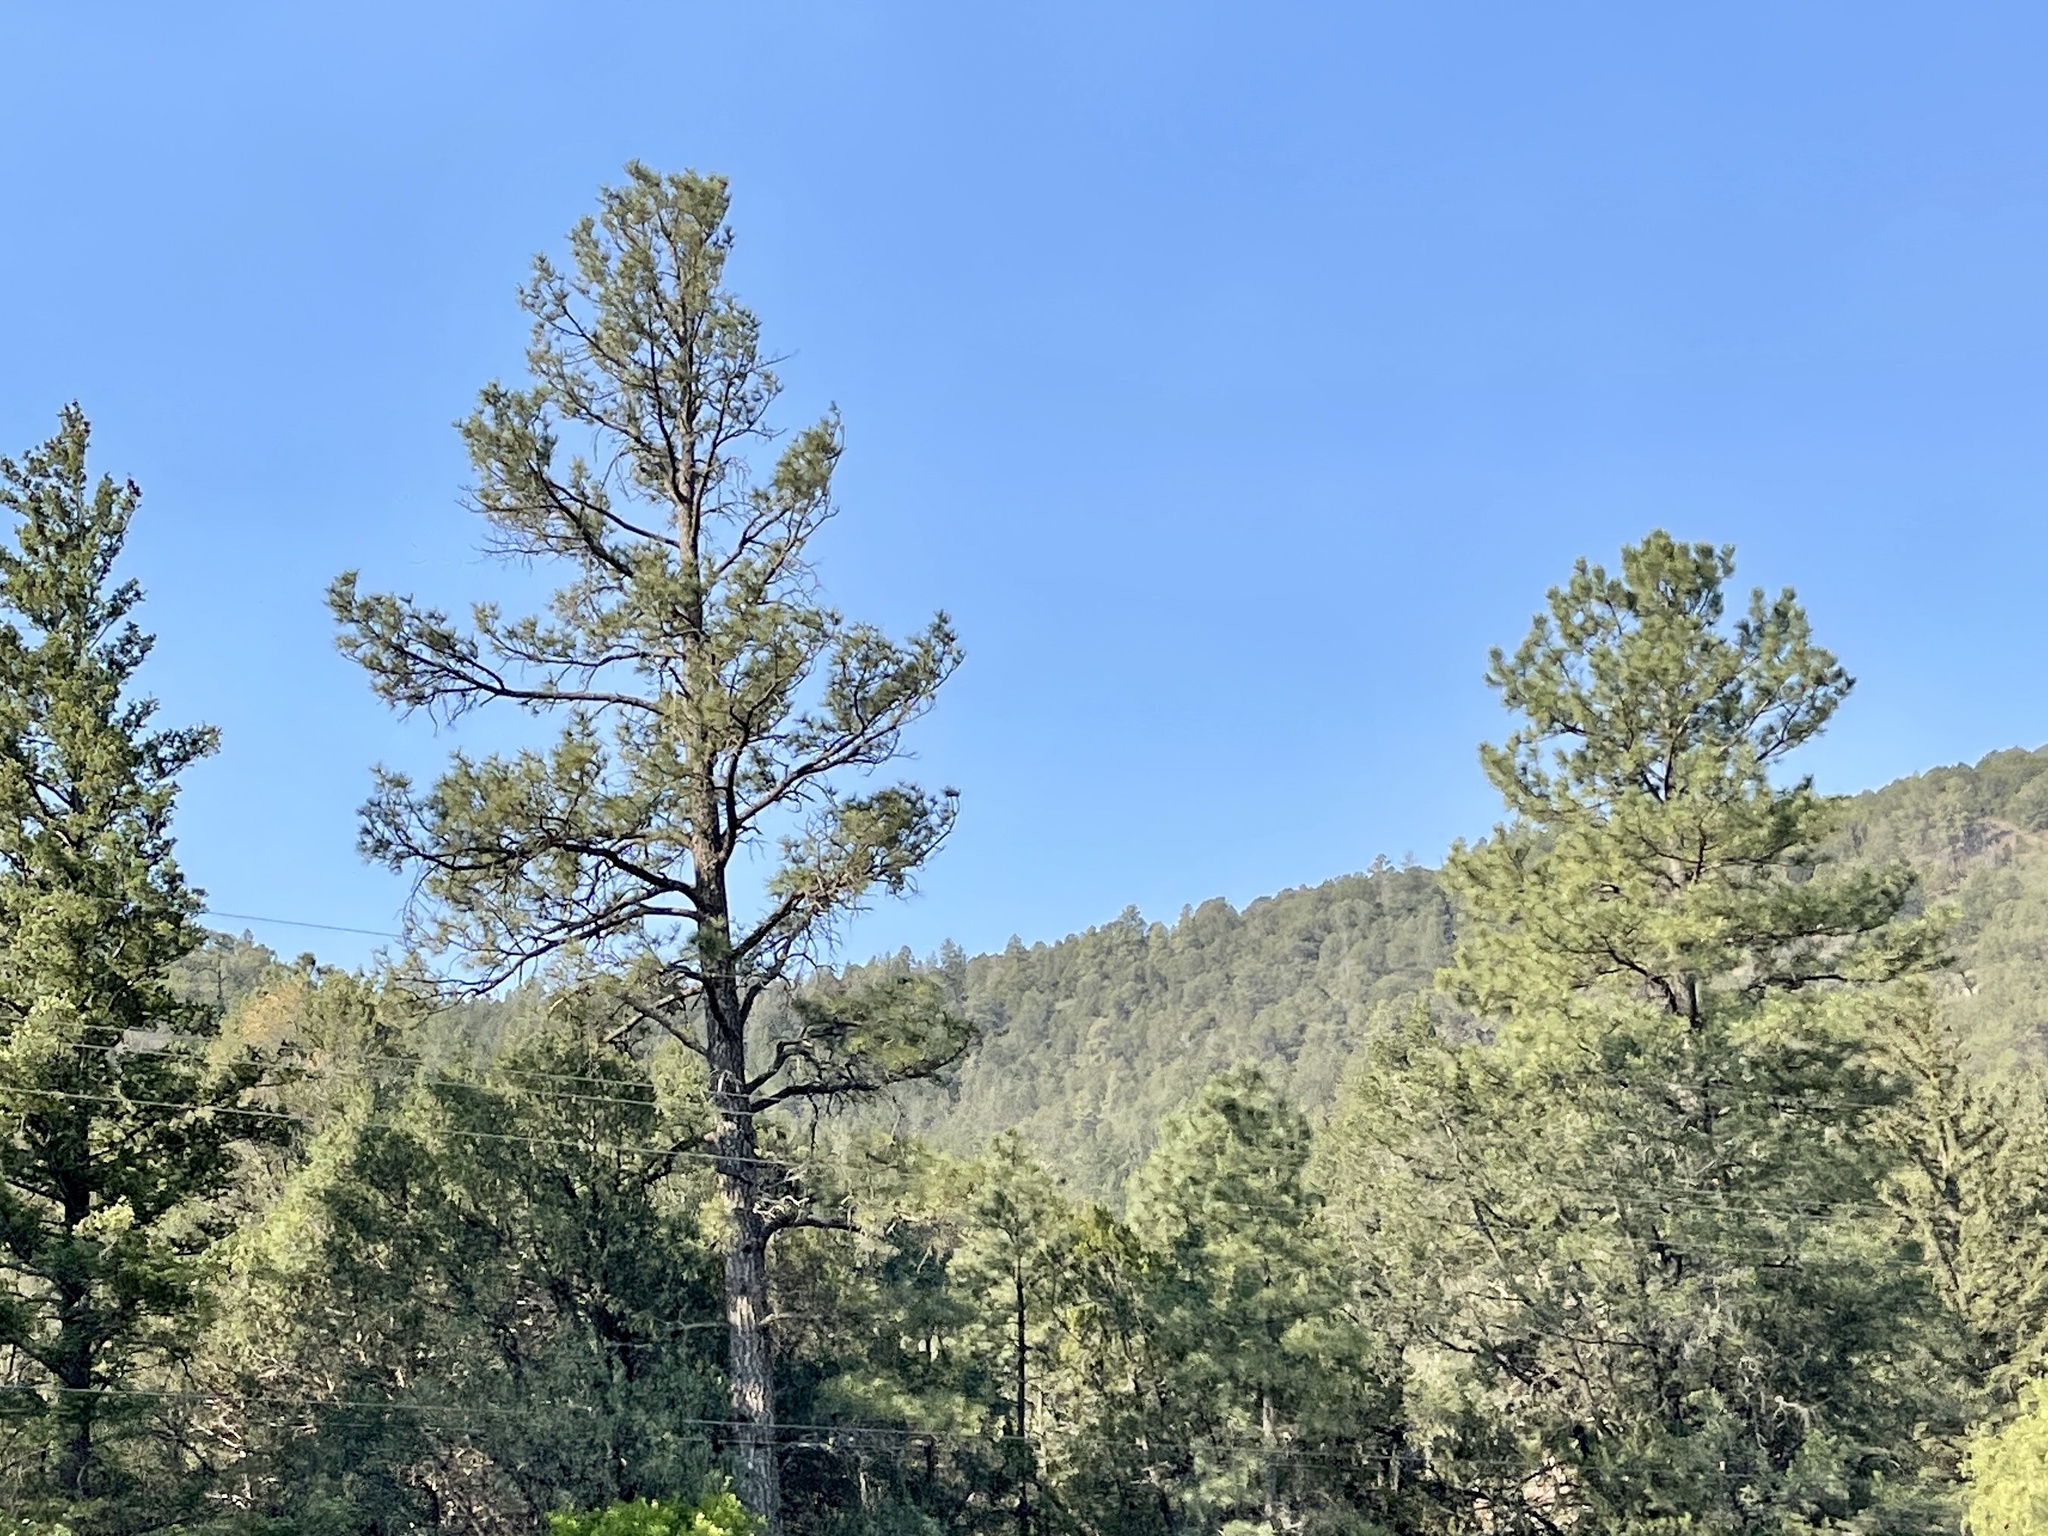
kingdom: Plantae
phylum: Tracheophyta
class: Pinopsida
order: Pinales
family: Pinaceae
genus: Pinus
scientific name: Pinus ponderosa
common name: Western yellow-pine
